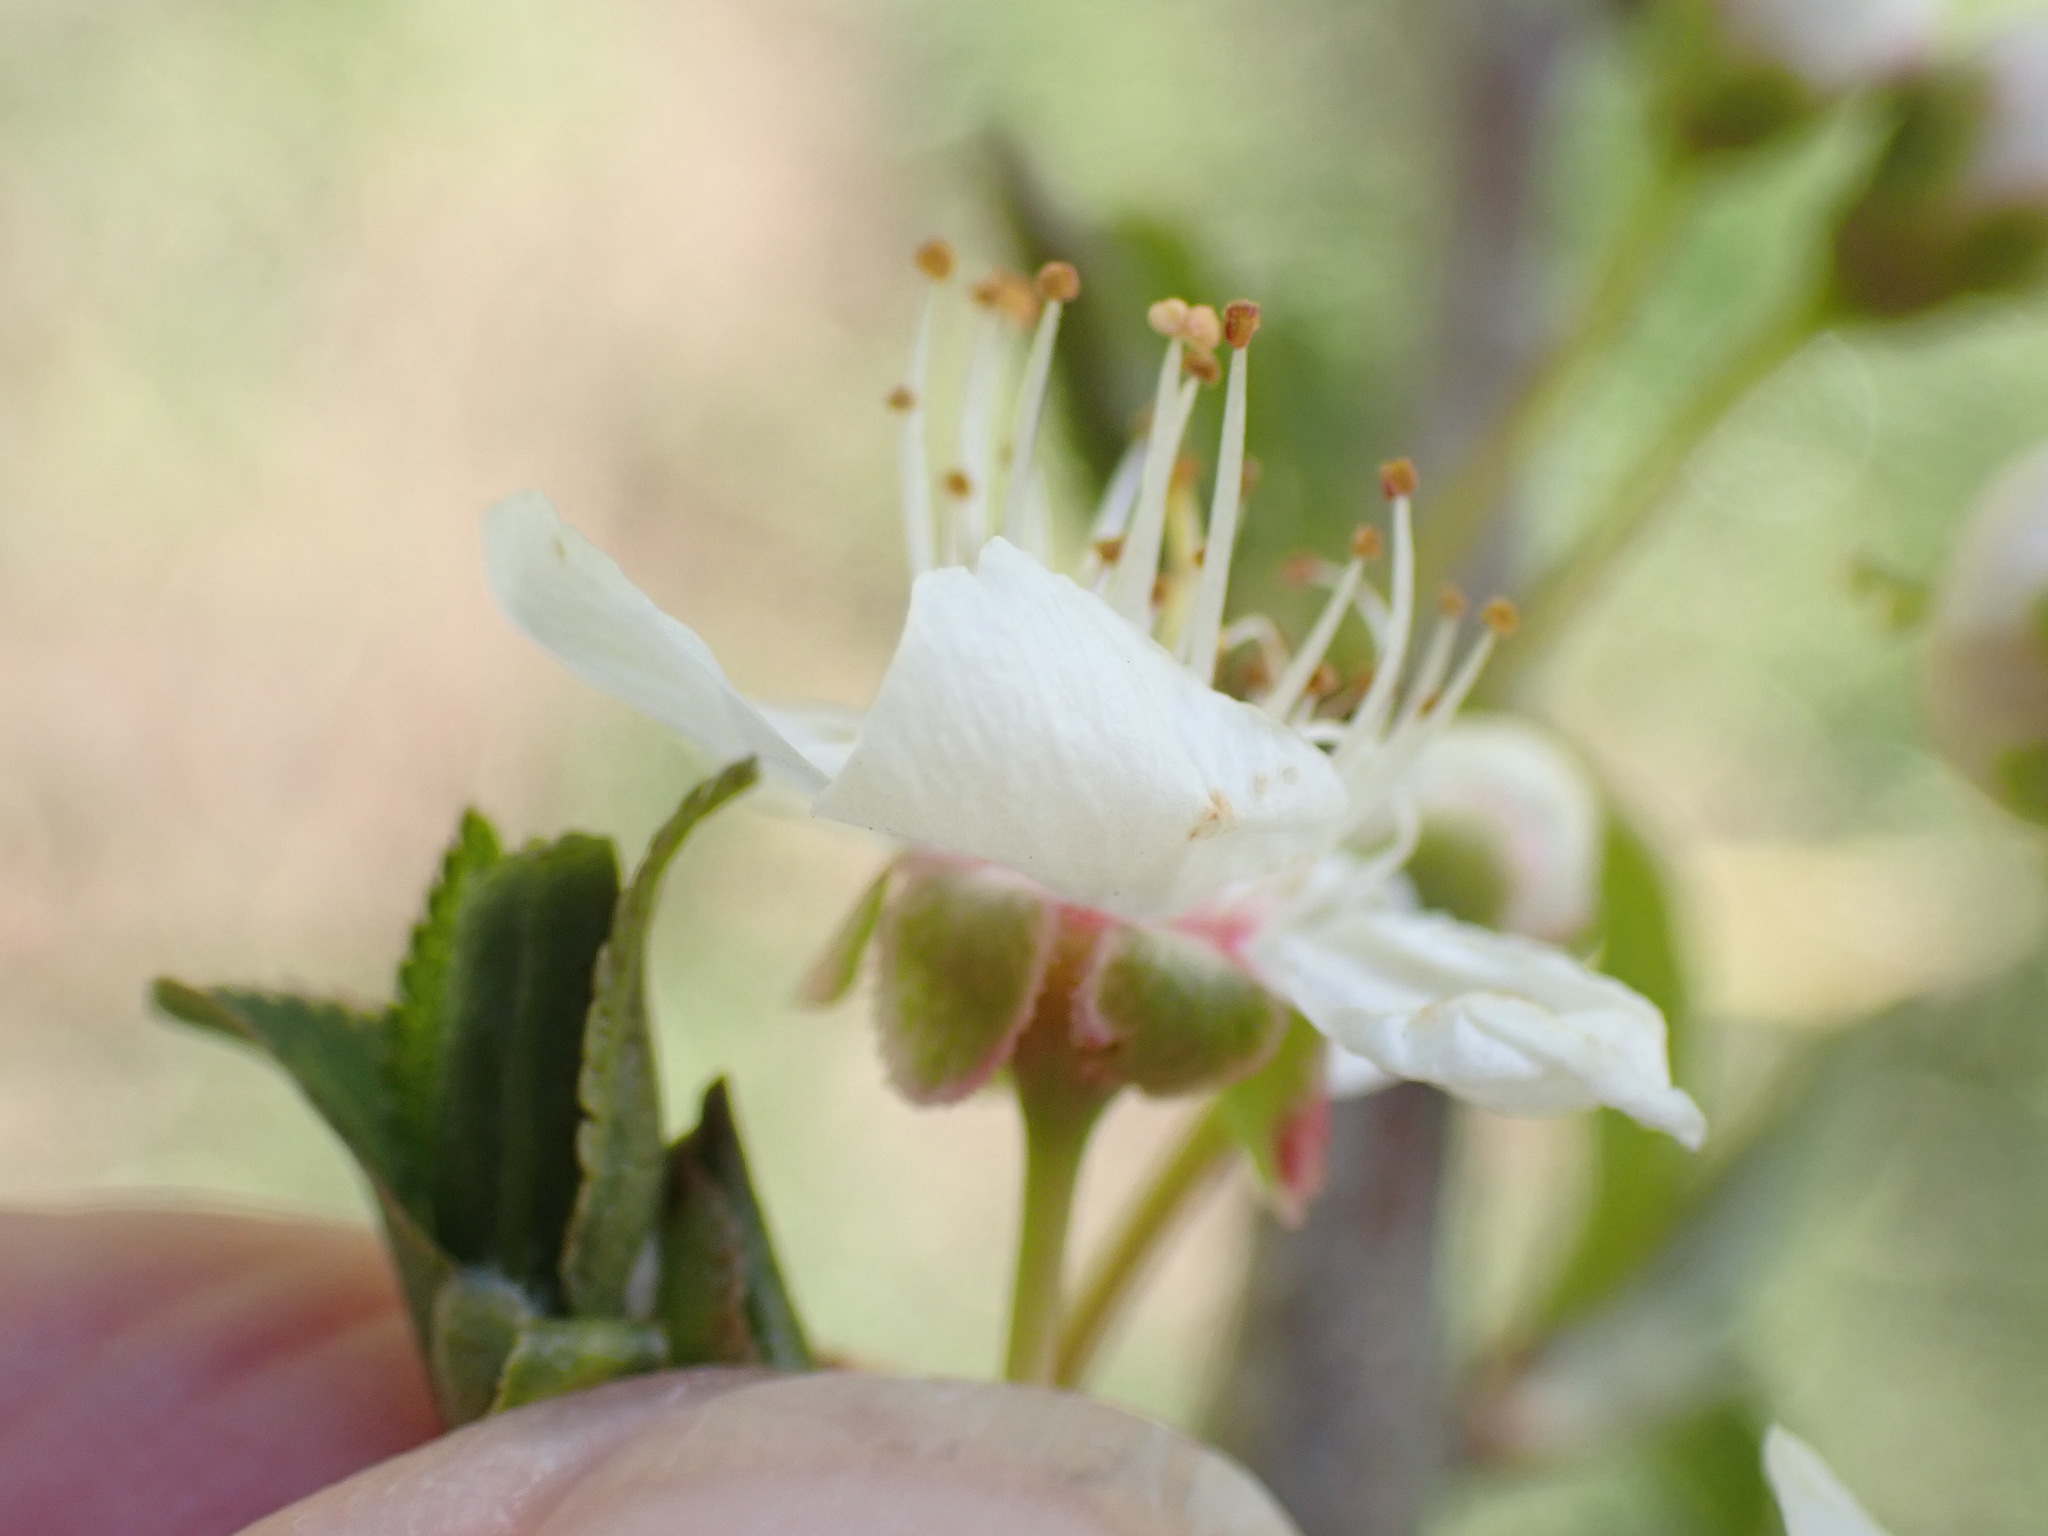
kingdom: Plantae
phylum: Tracheophyta
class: Magnoliopsida
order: Rosales
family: Rosaceae
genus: Prunus
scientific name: Prunus cerasifera
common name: Cherry plum
